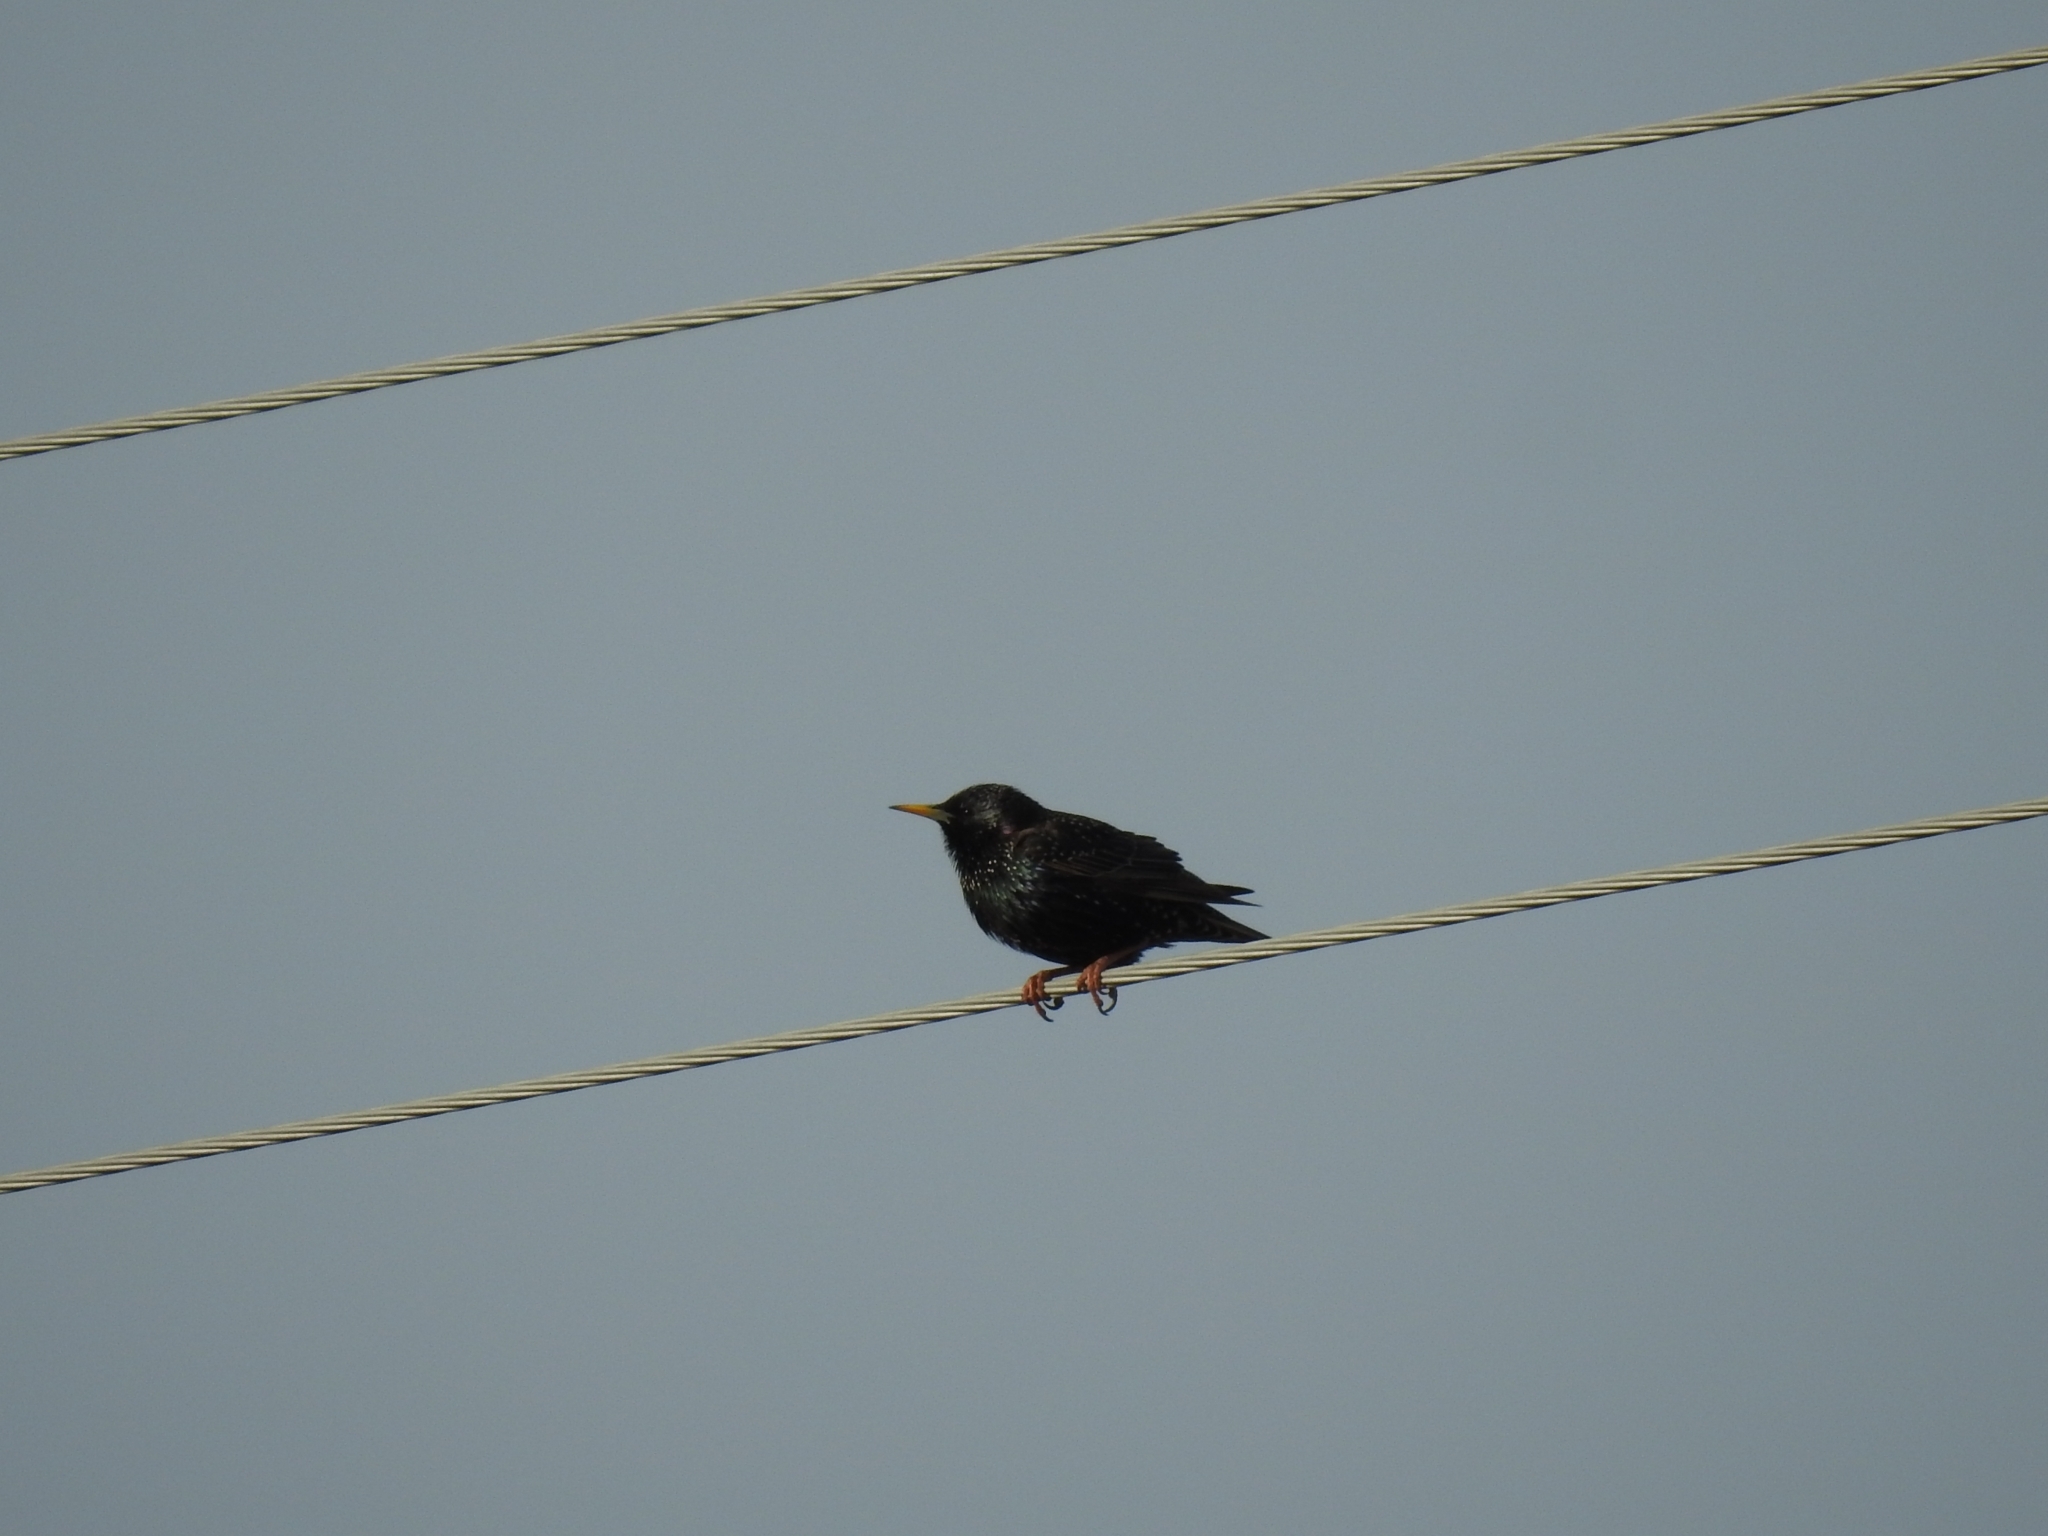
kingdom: Animalia
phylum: Chordata
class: Aves
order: Passeriformes
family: Sturnidae
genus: Sturnus
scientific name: Sturnus vulgaris
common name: Common starling
